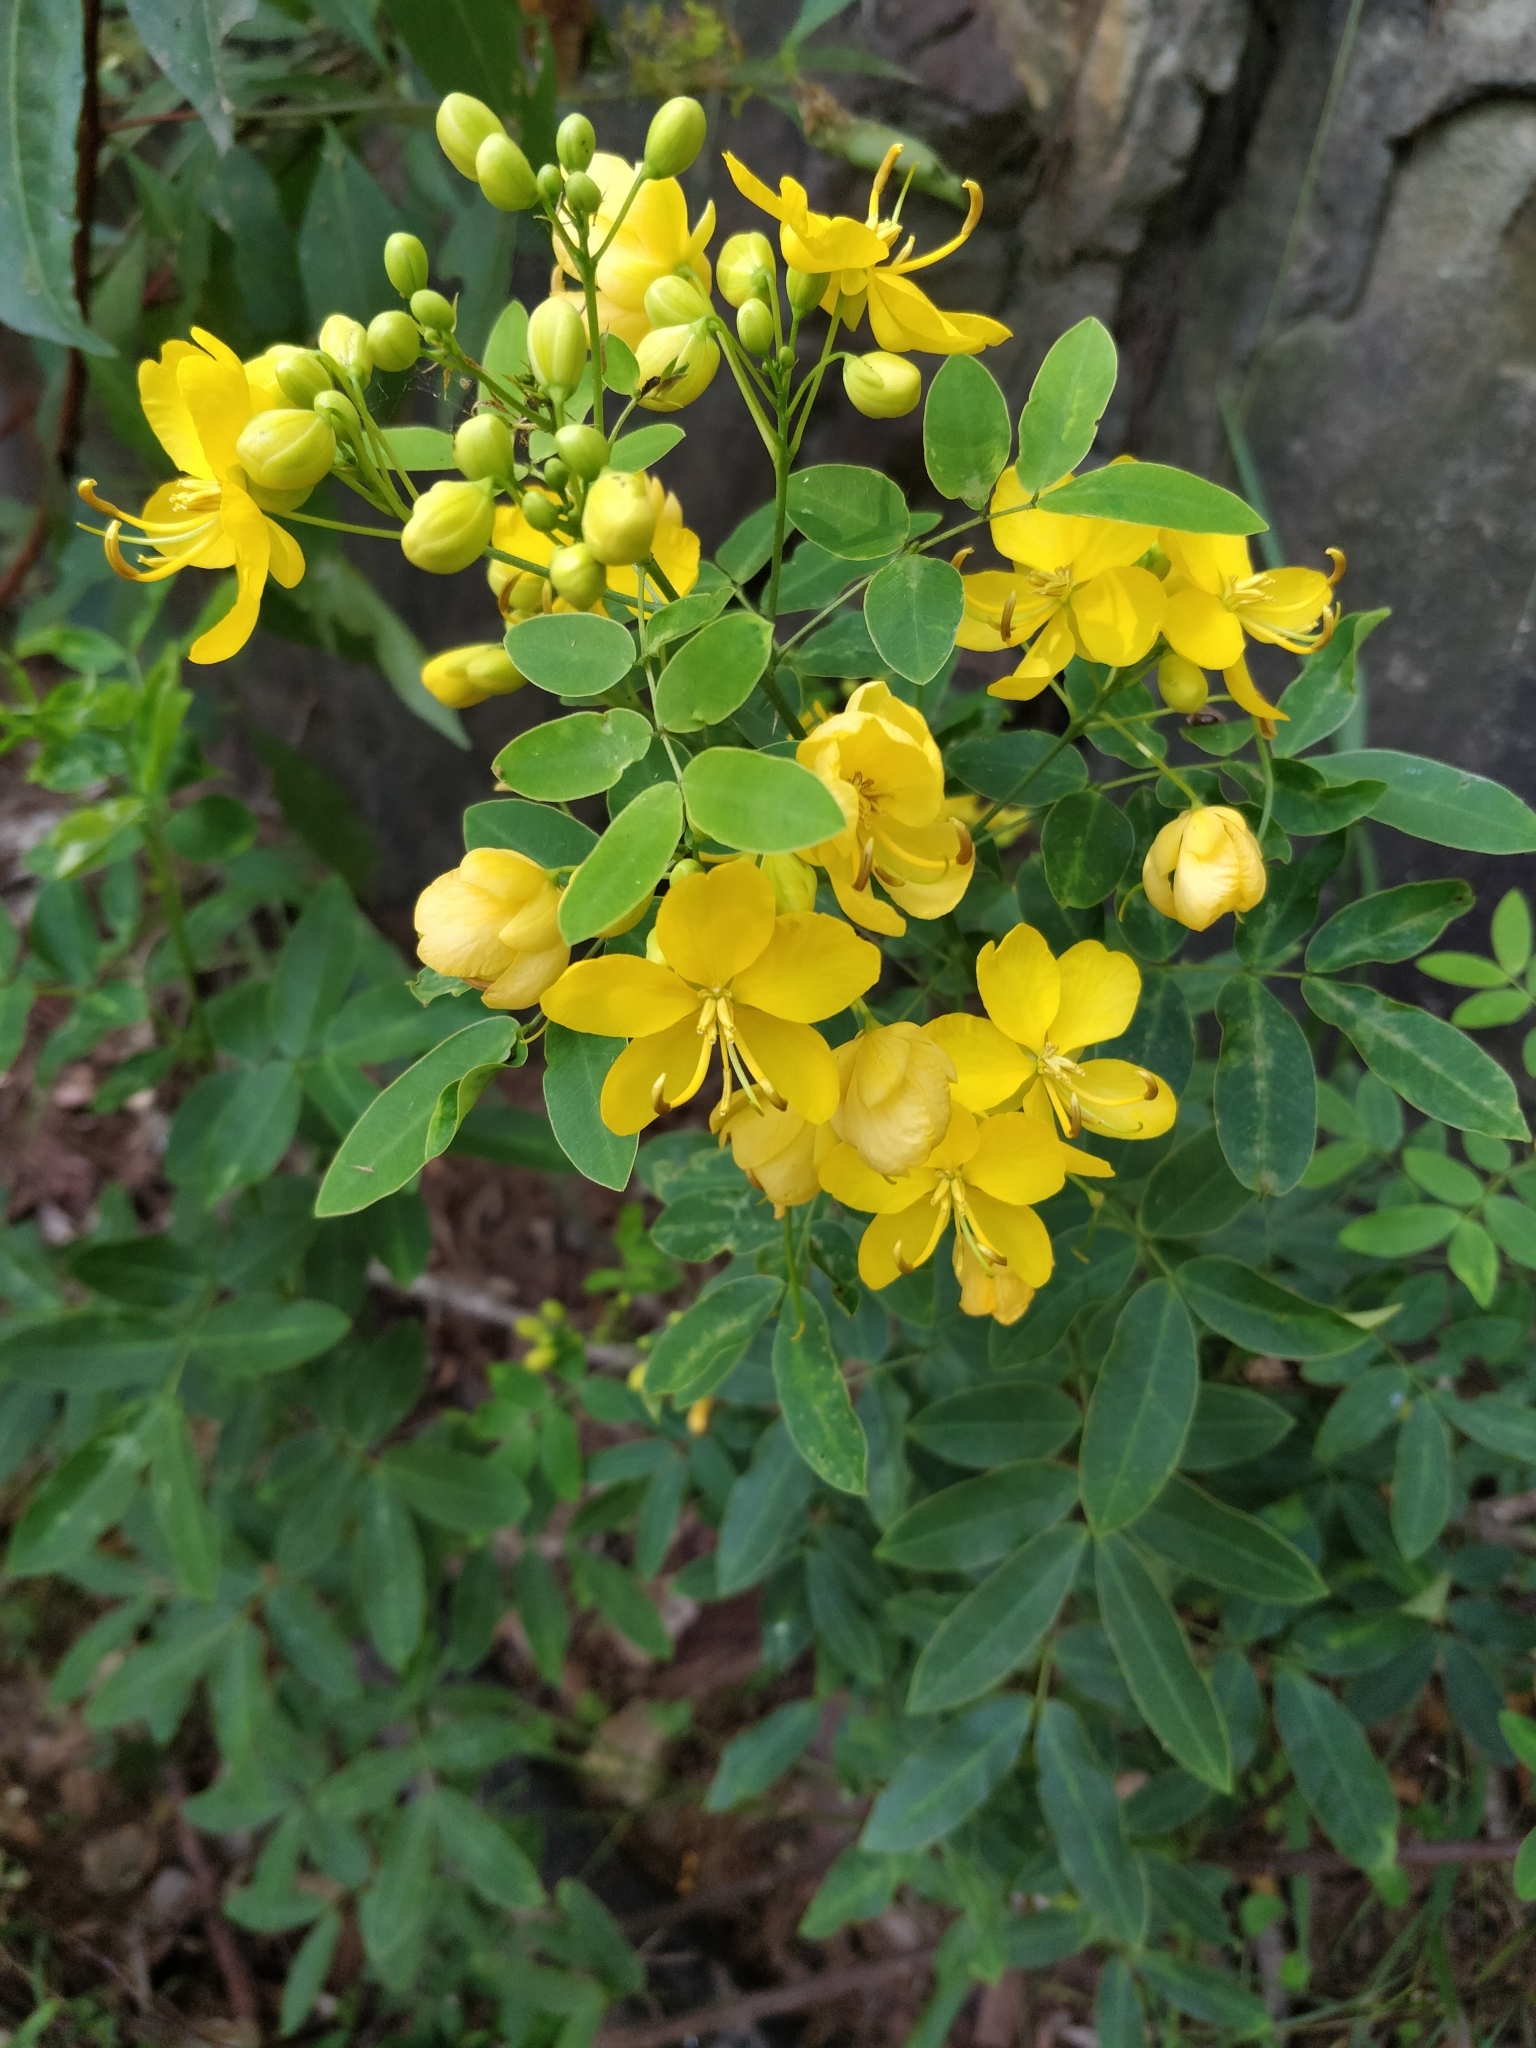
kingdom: Plantae
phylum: Tracheophyta
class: Magnoliopsida
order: Fabales
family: Fabaceae
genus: Senna
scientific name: Senna pendula
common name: Easter cassia
